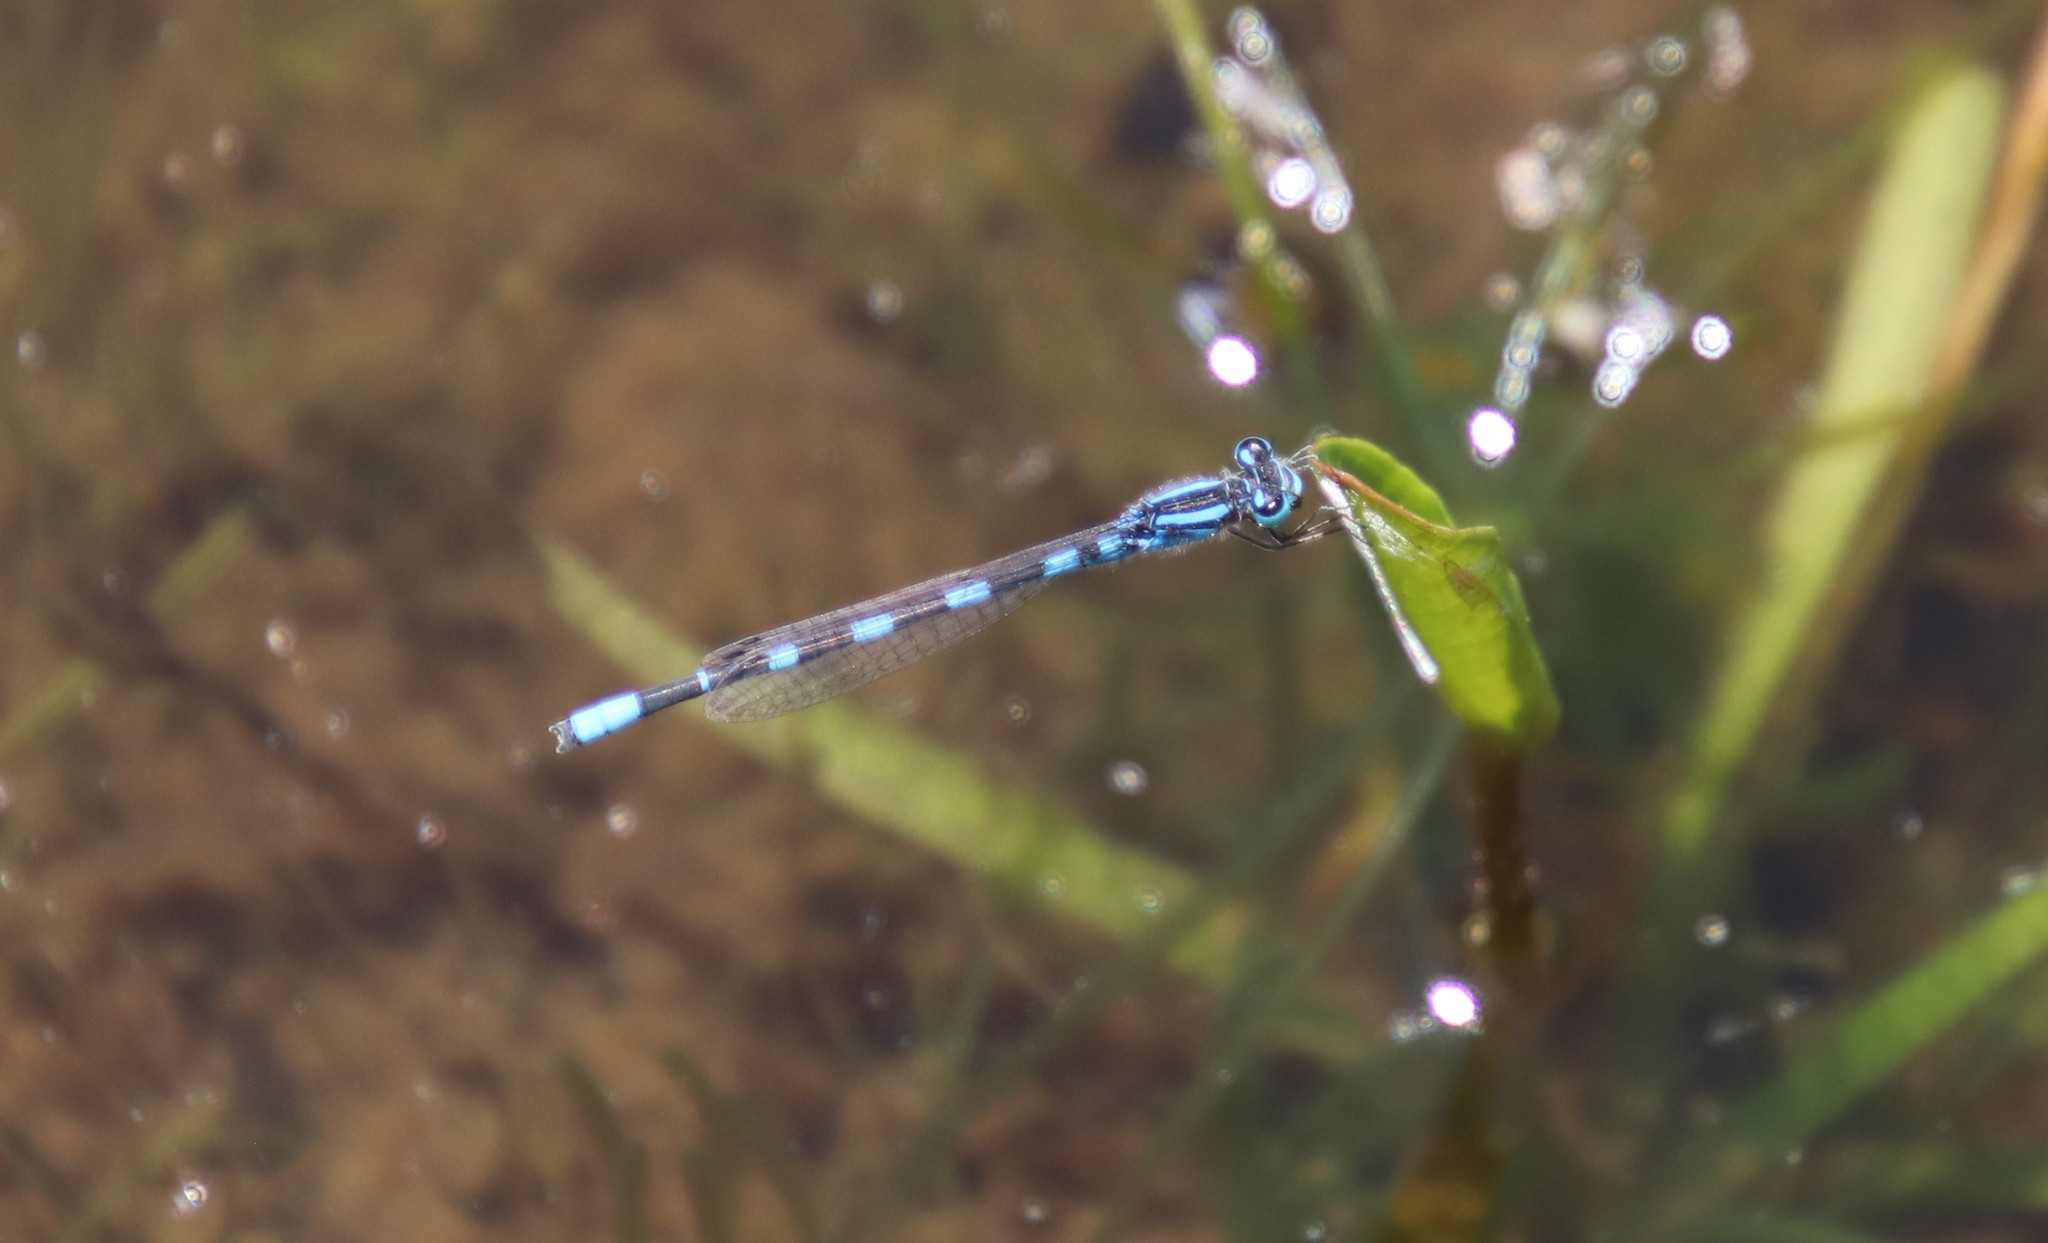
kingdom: Animalia
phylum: Arthropoda
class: Insecta
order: Odonata
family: Coenagrionidae
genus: Enallagma
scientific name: Enallagma carunculatum
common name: Tule bluet
